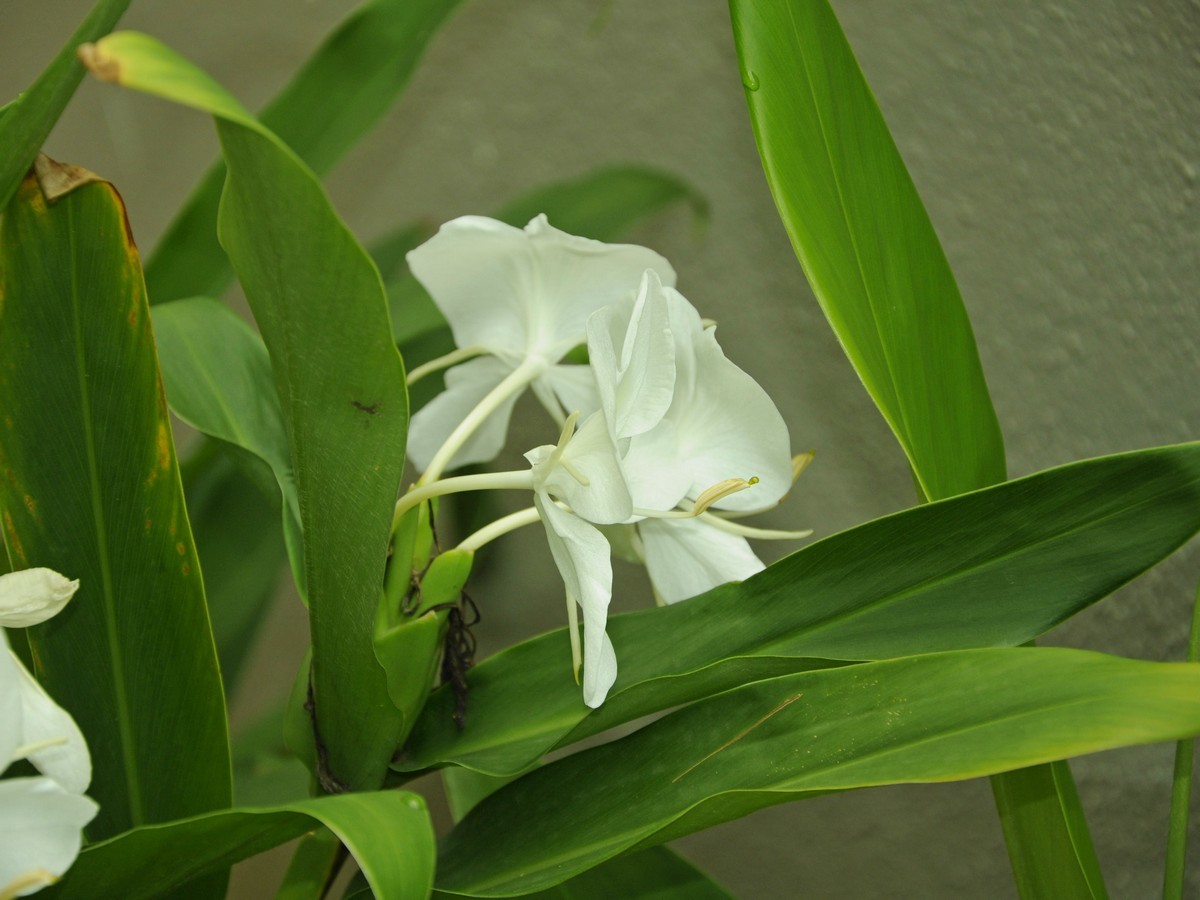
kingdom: Plantae
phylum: Tracheophyta
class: Liliopsida
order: Zingiberales
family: Zingiberaceae
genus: Hedychium
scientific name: Hedychium coronarium
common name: White garland-lily
